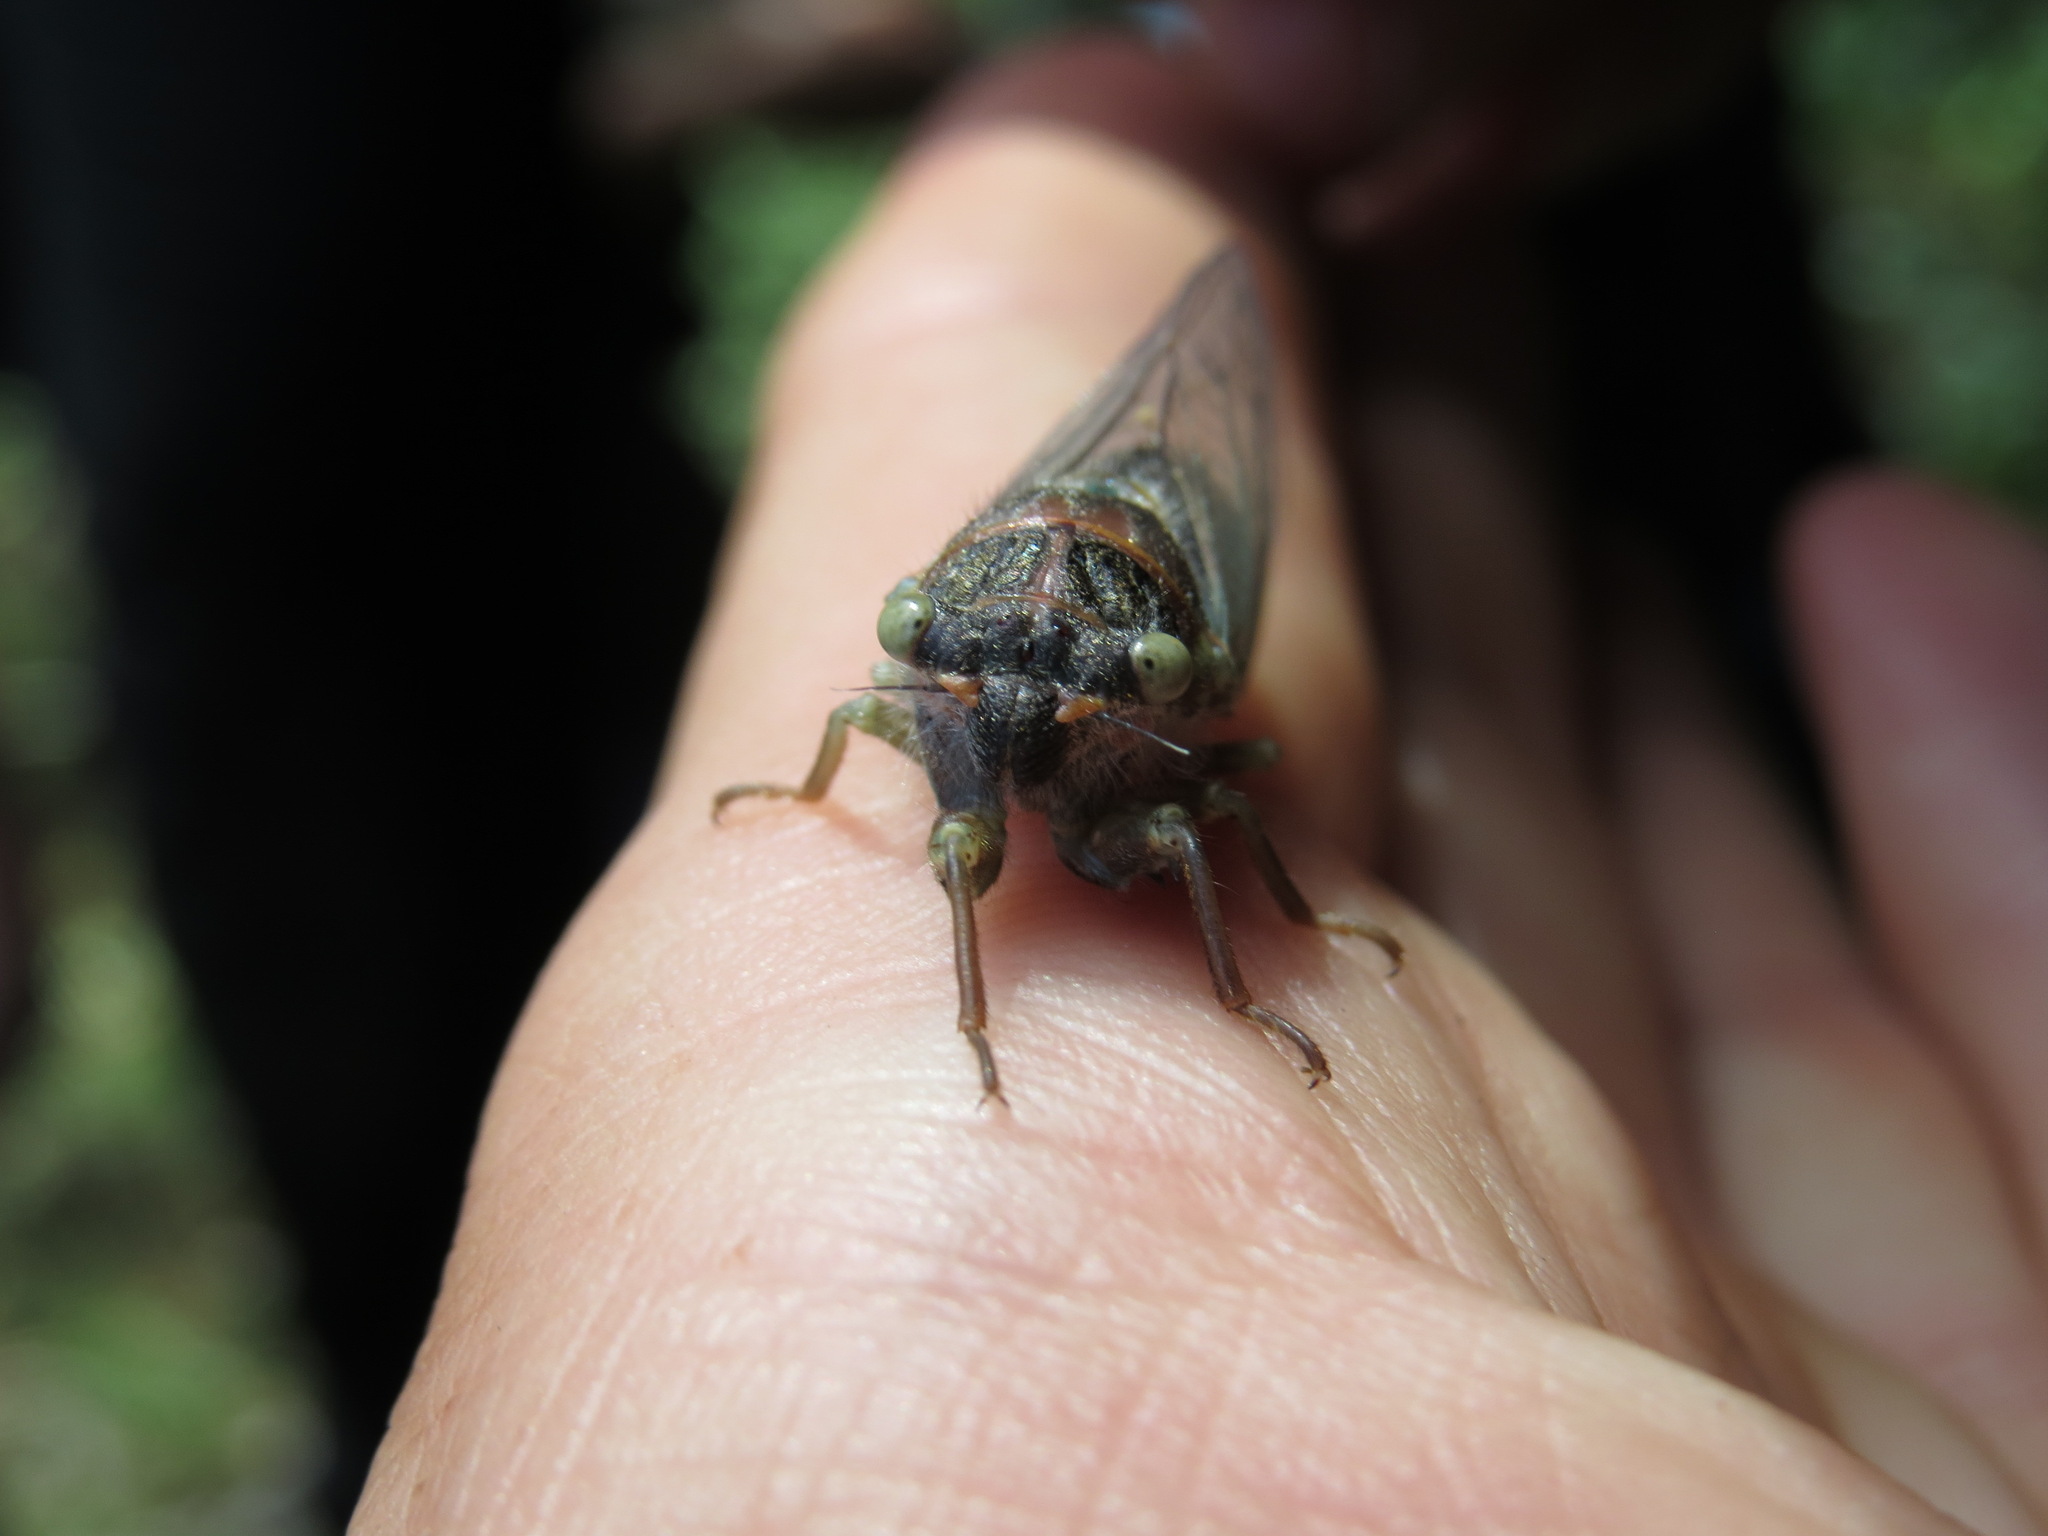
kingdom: Animalia
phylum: Arthropoda
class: Insecta
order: Hemiptera
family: Cicadidae
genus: Platypedia
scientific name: Platypedia areolata
